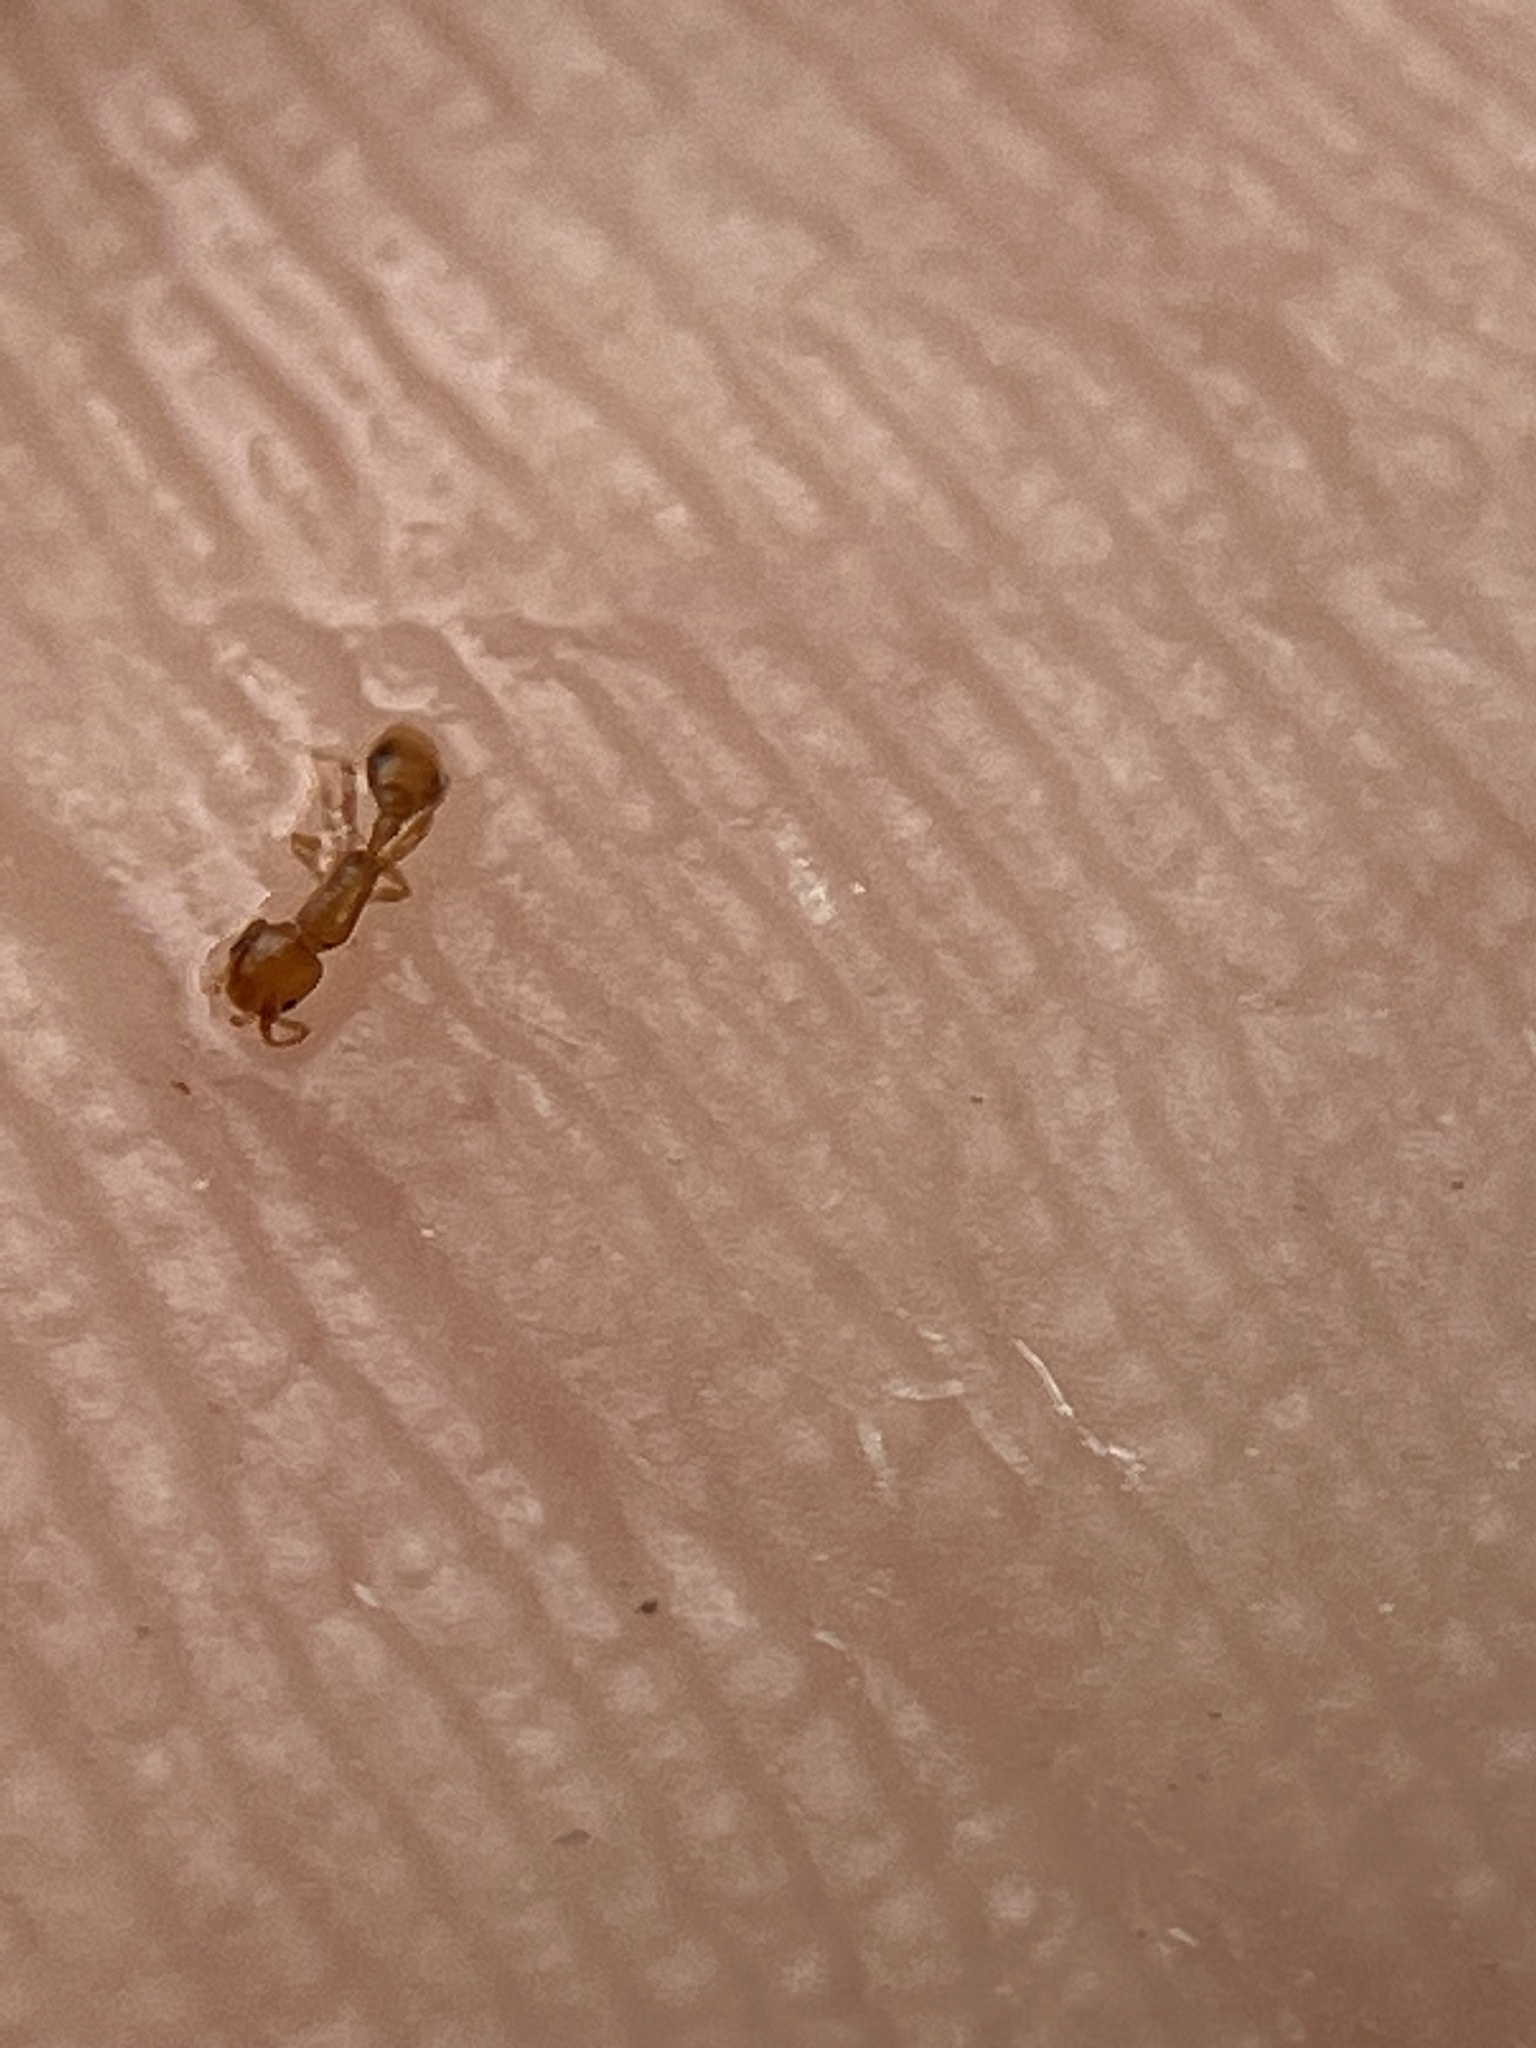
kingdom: Animalia
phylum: Arthropoda
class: Insecta
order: Hymenoptera
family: Formicidae
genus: Cardiocondyla
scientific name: Cardiocondyla wroughtonii
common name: Yellow sneaking ant
